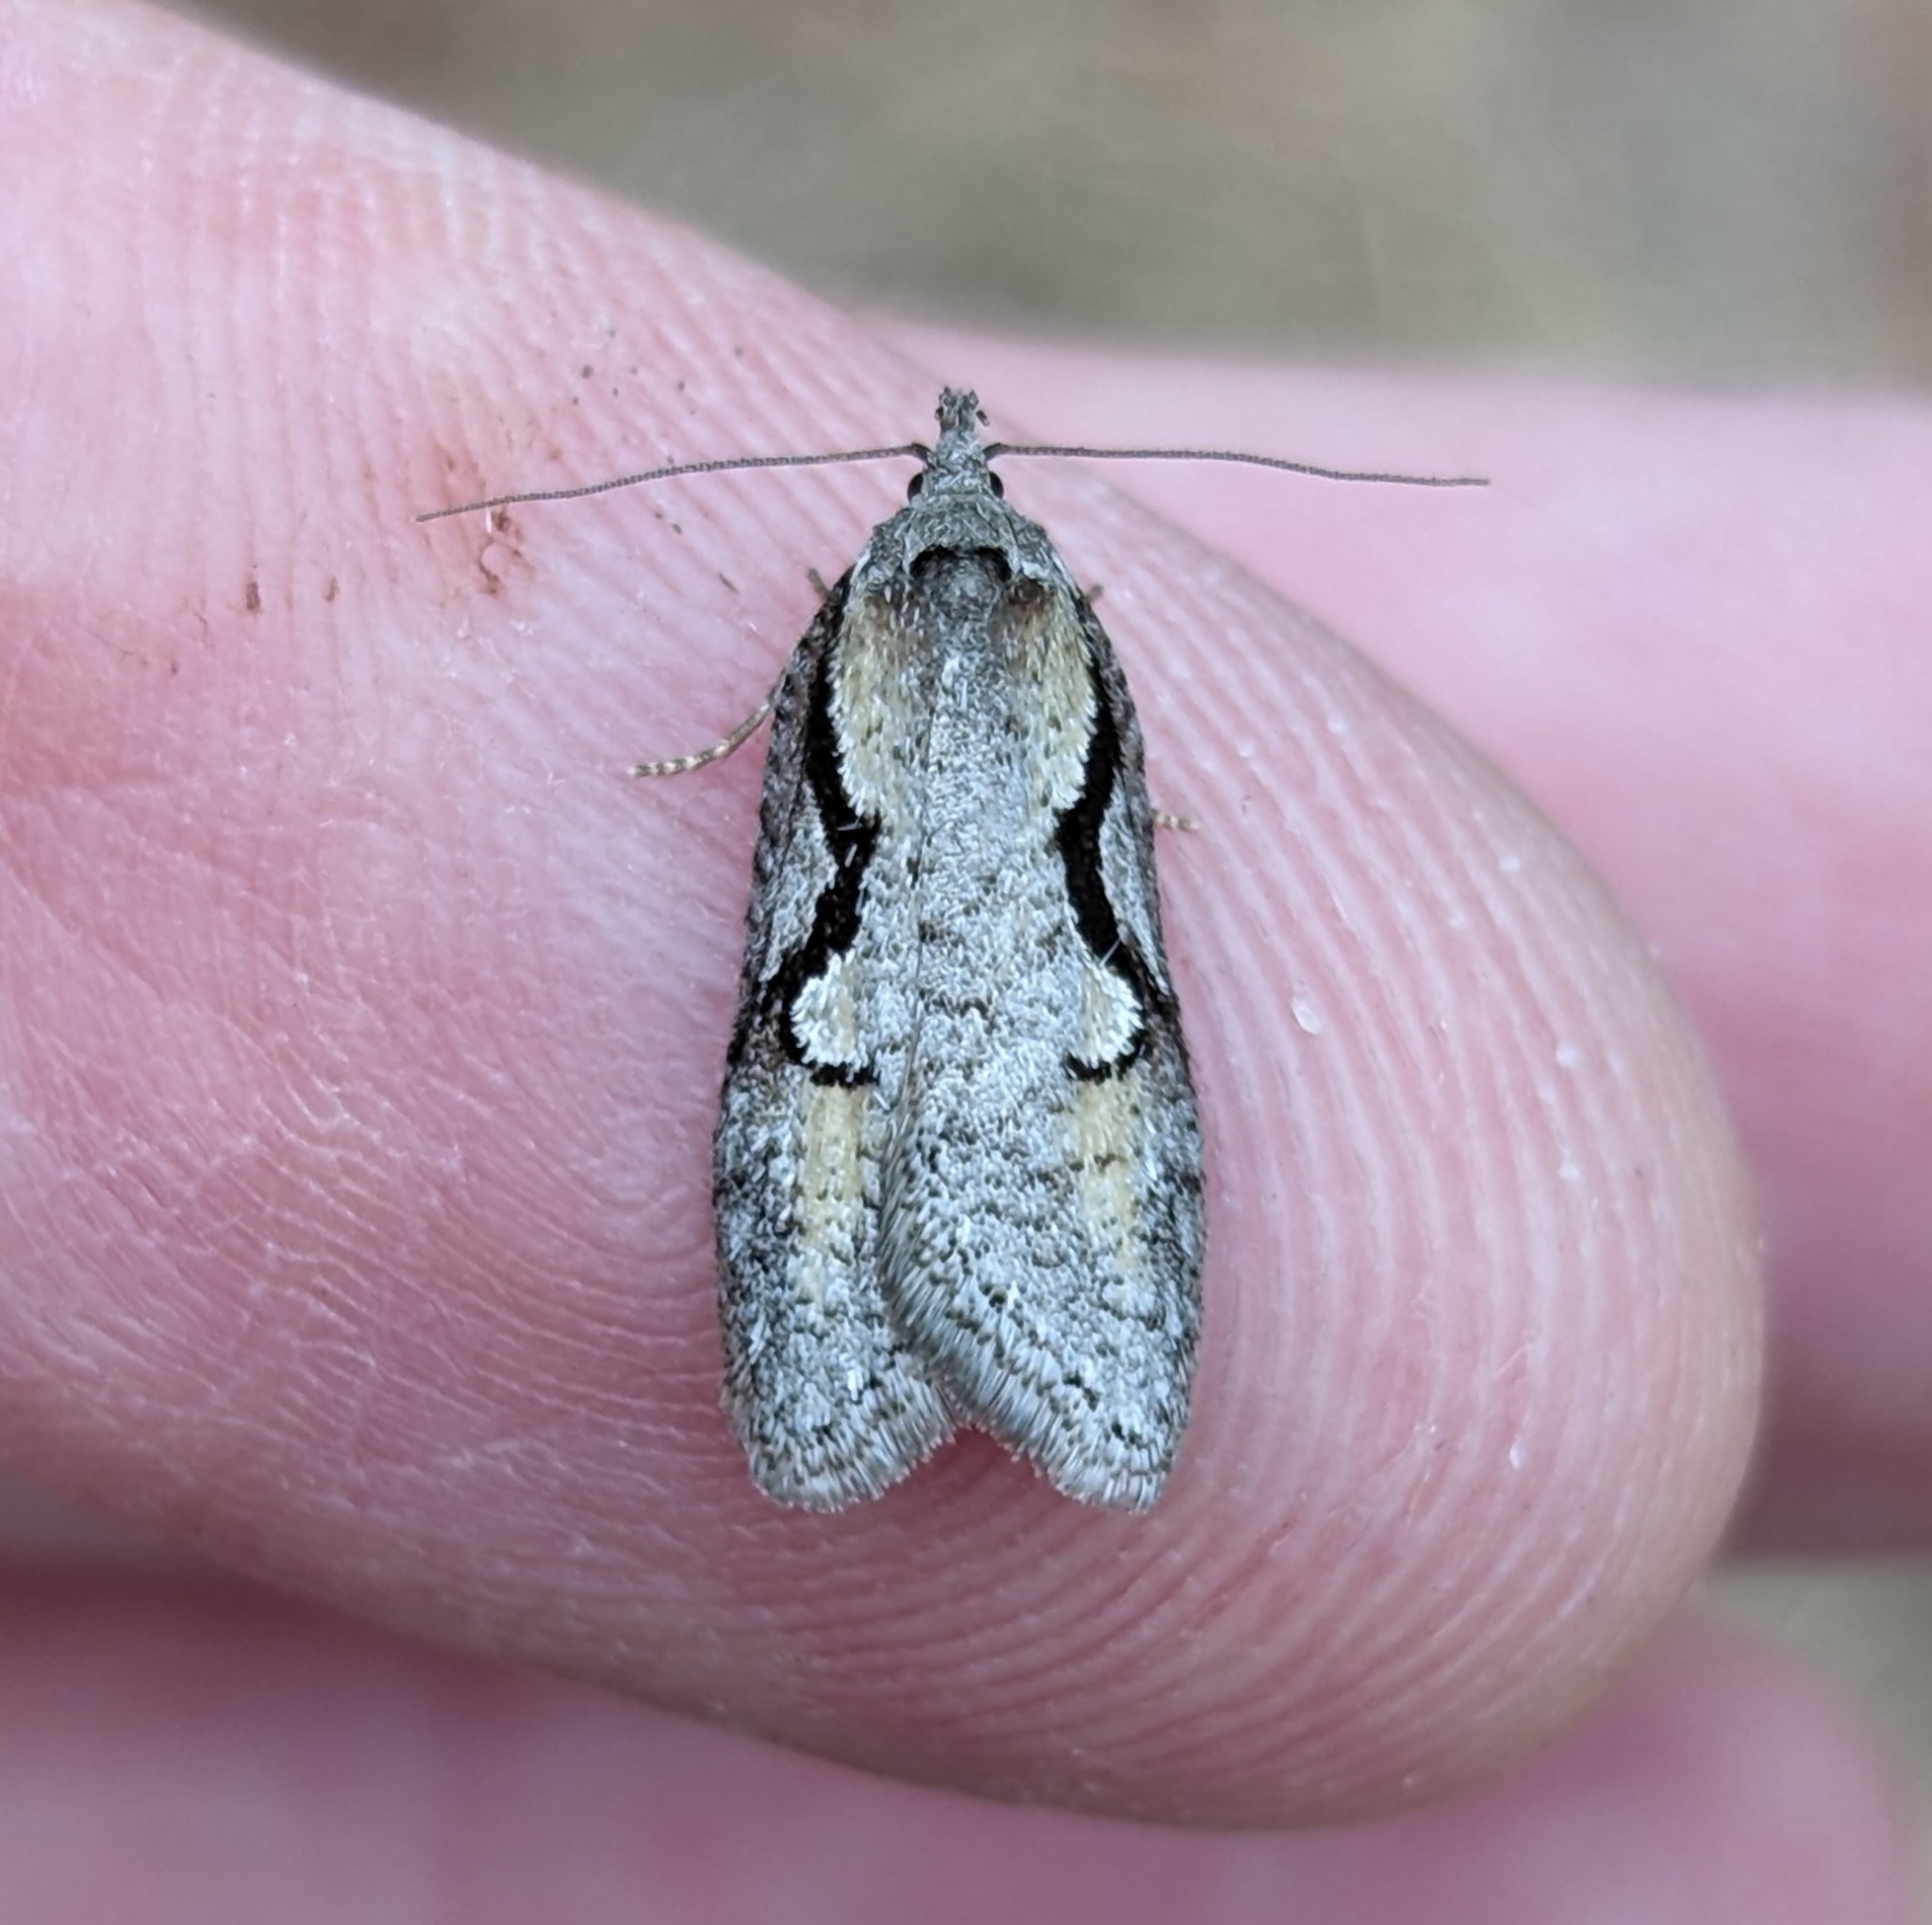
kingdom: Animalia
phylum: Arthropoda
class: Insecta
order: Lepidoptera
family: Depressariidae
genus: Semioscopis
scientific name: Semioscopis packardella
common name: Packard's concealer moth
